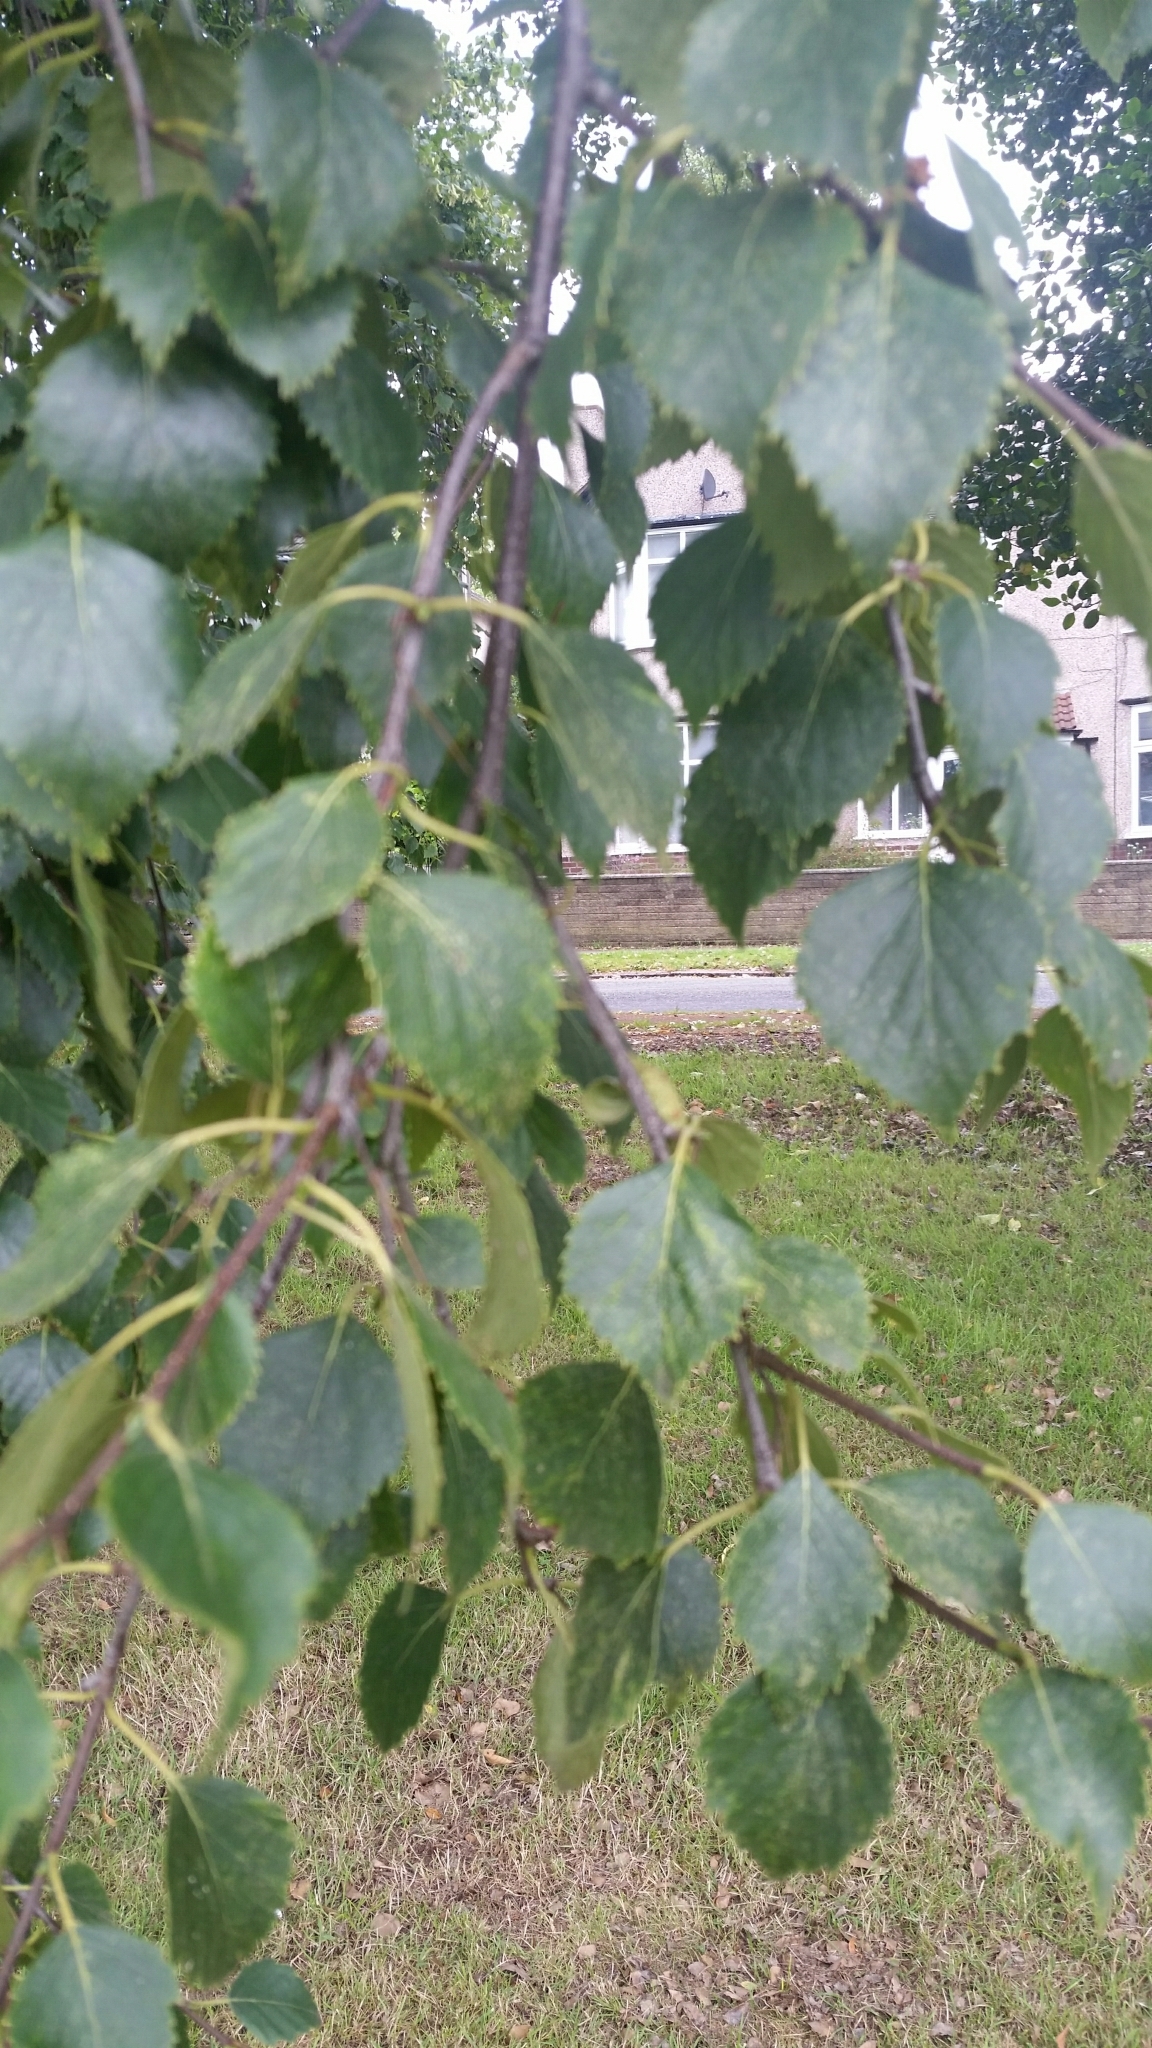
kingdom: Plantae
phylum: Tracheophyta
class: Magnoliopsida
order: Fagales
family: Betulaceae
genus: Betula
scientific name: Betula pendula
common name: Silver birch
